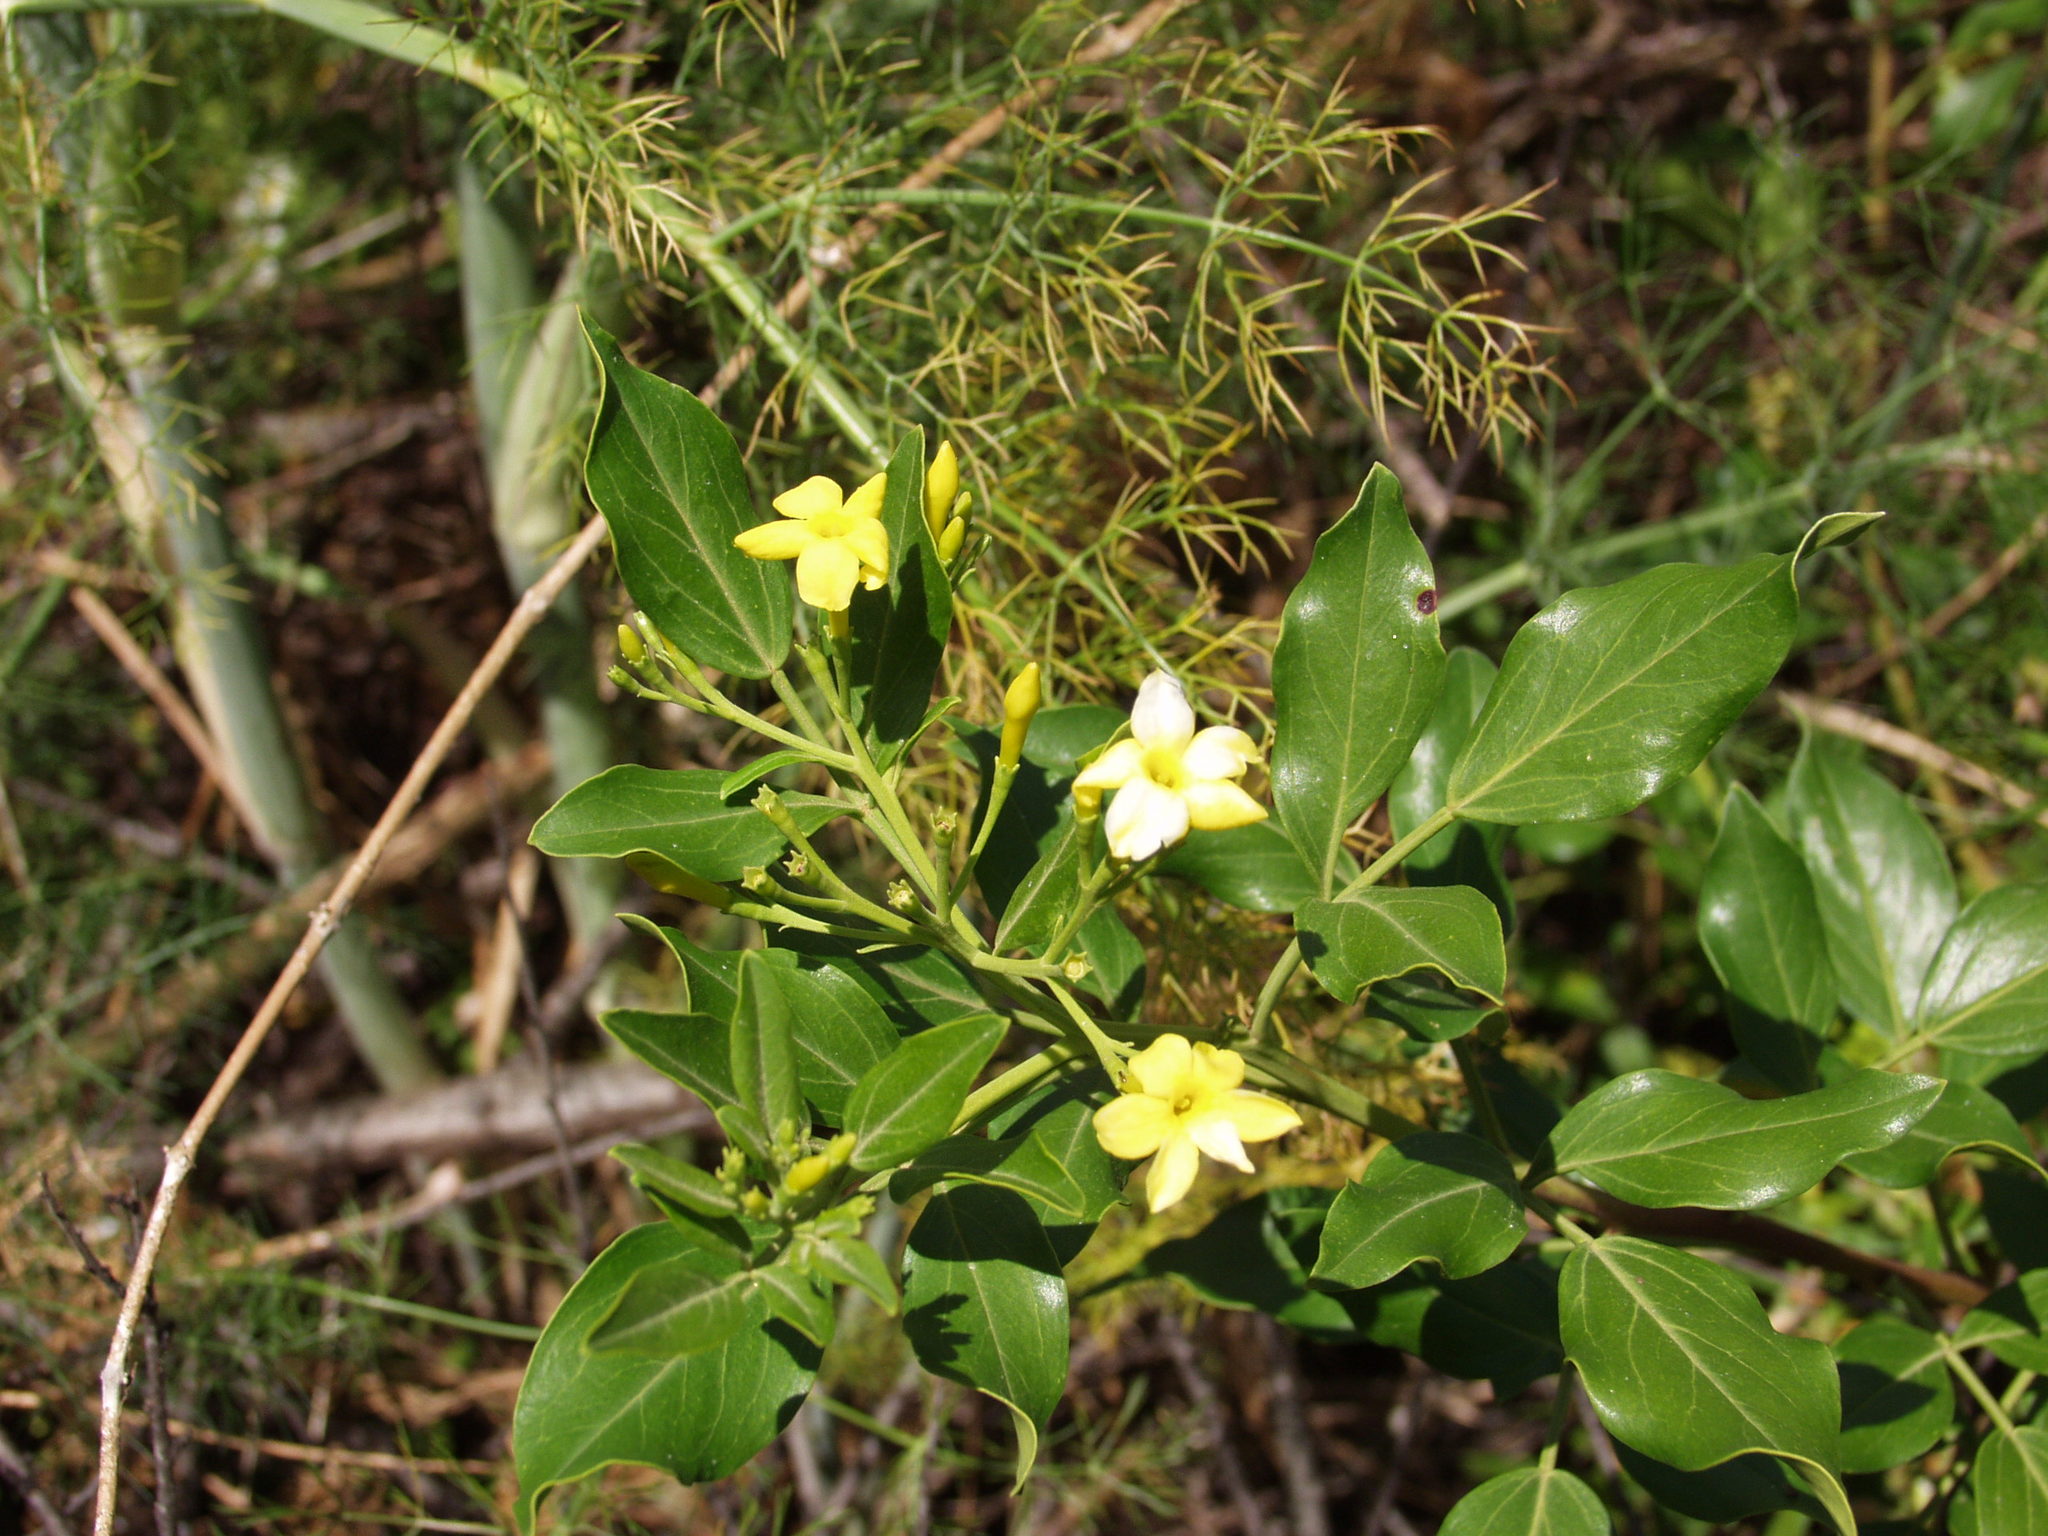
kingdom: Plantae
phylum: Tracheophyta
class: Magnoliopsida
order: Lamiales
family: Oleaceae
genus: Chrysojasminum
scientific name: Chrysojasminum odoratissimum
